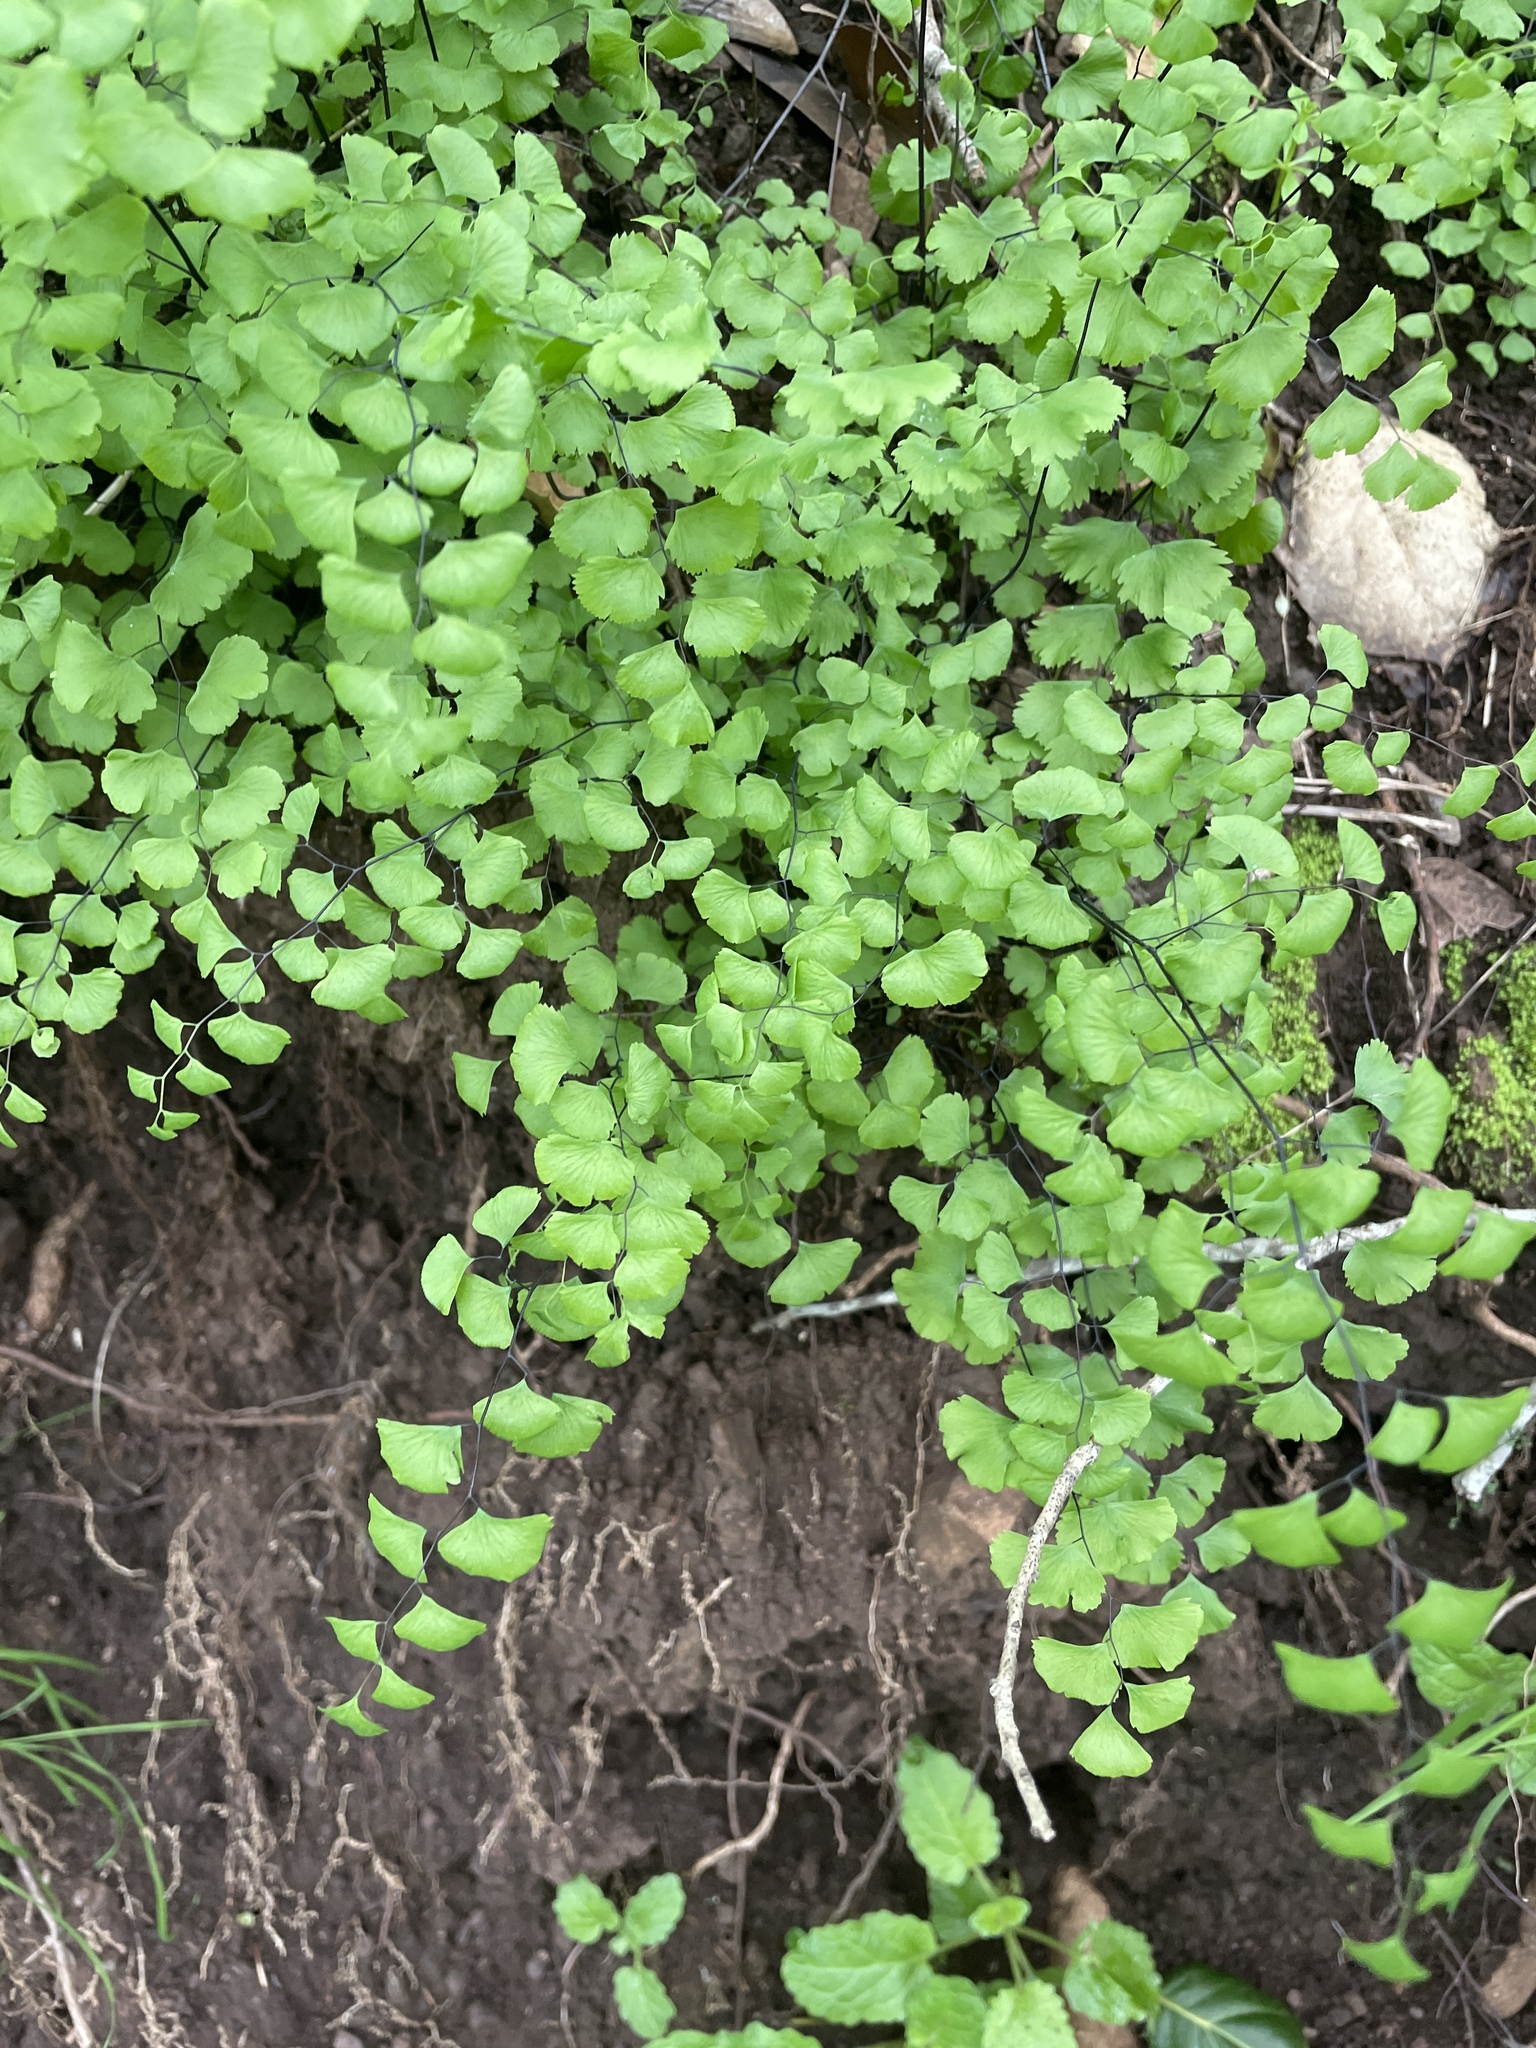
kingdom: Plantae
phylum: Tracheophyta
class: Polypodiopsida
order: Polypodiales
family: Pteridaceae
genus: Adiantum
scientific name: Adiantum jordanii
